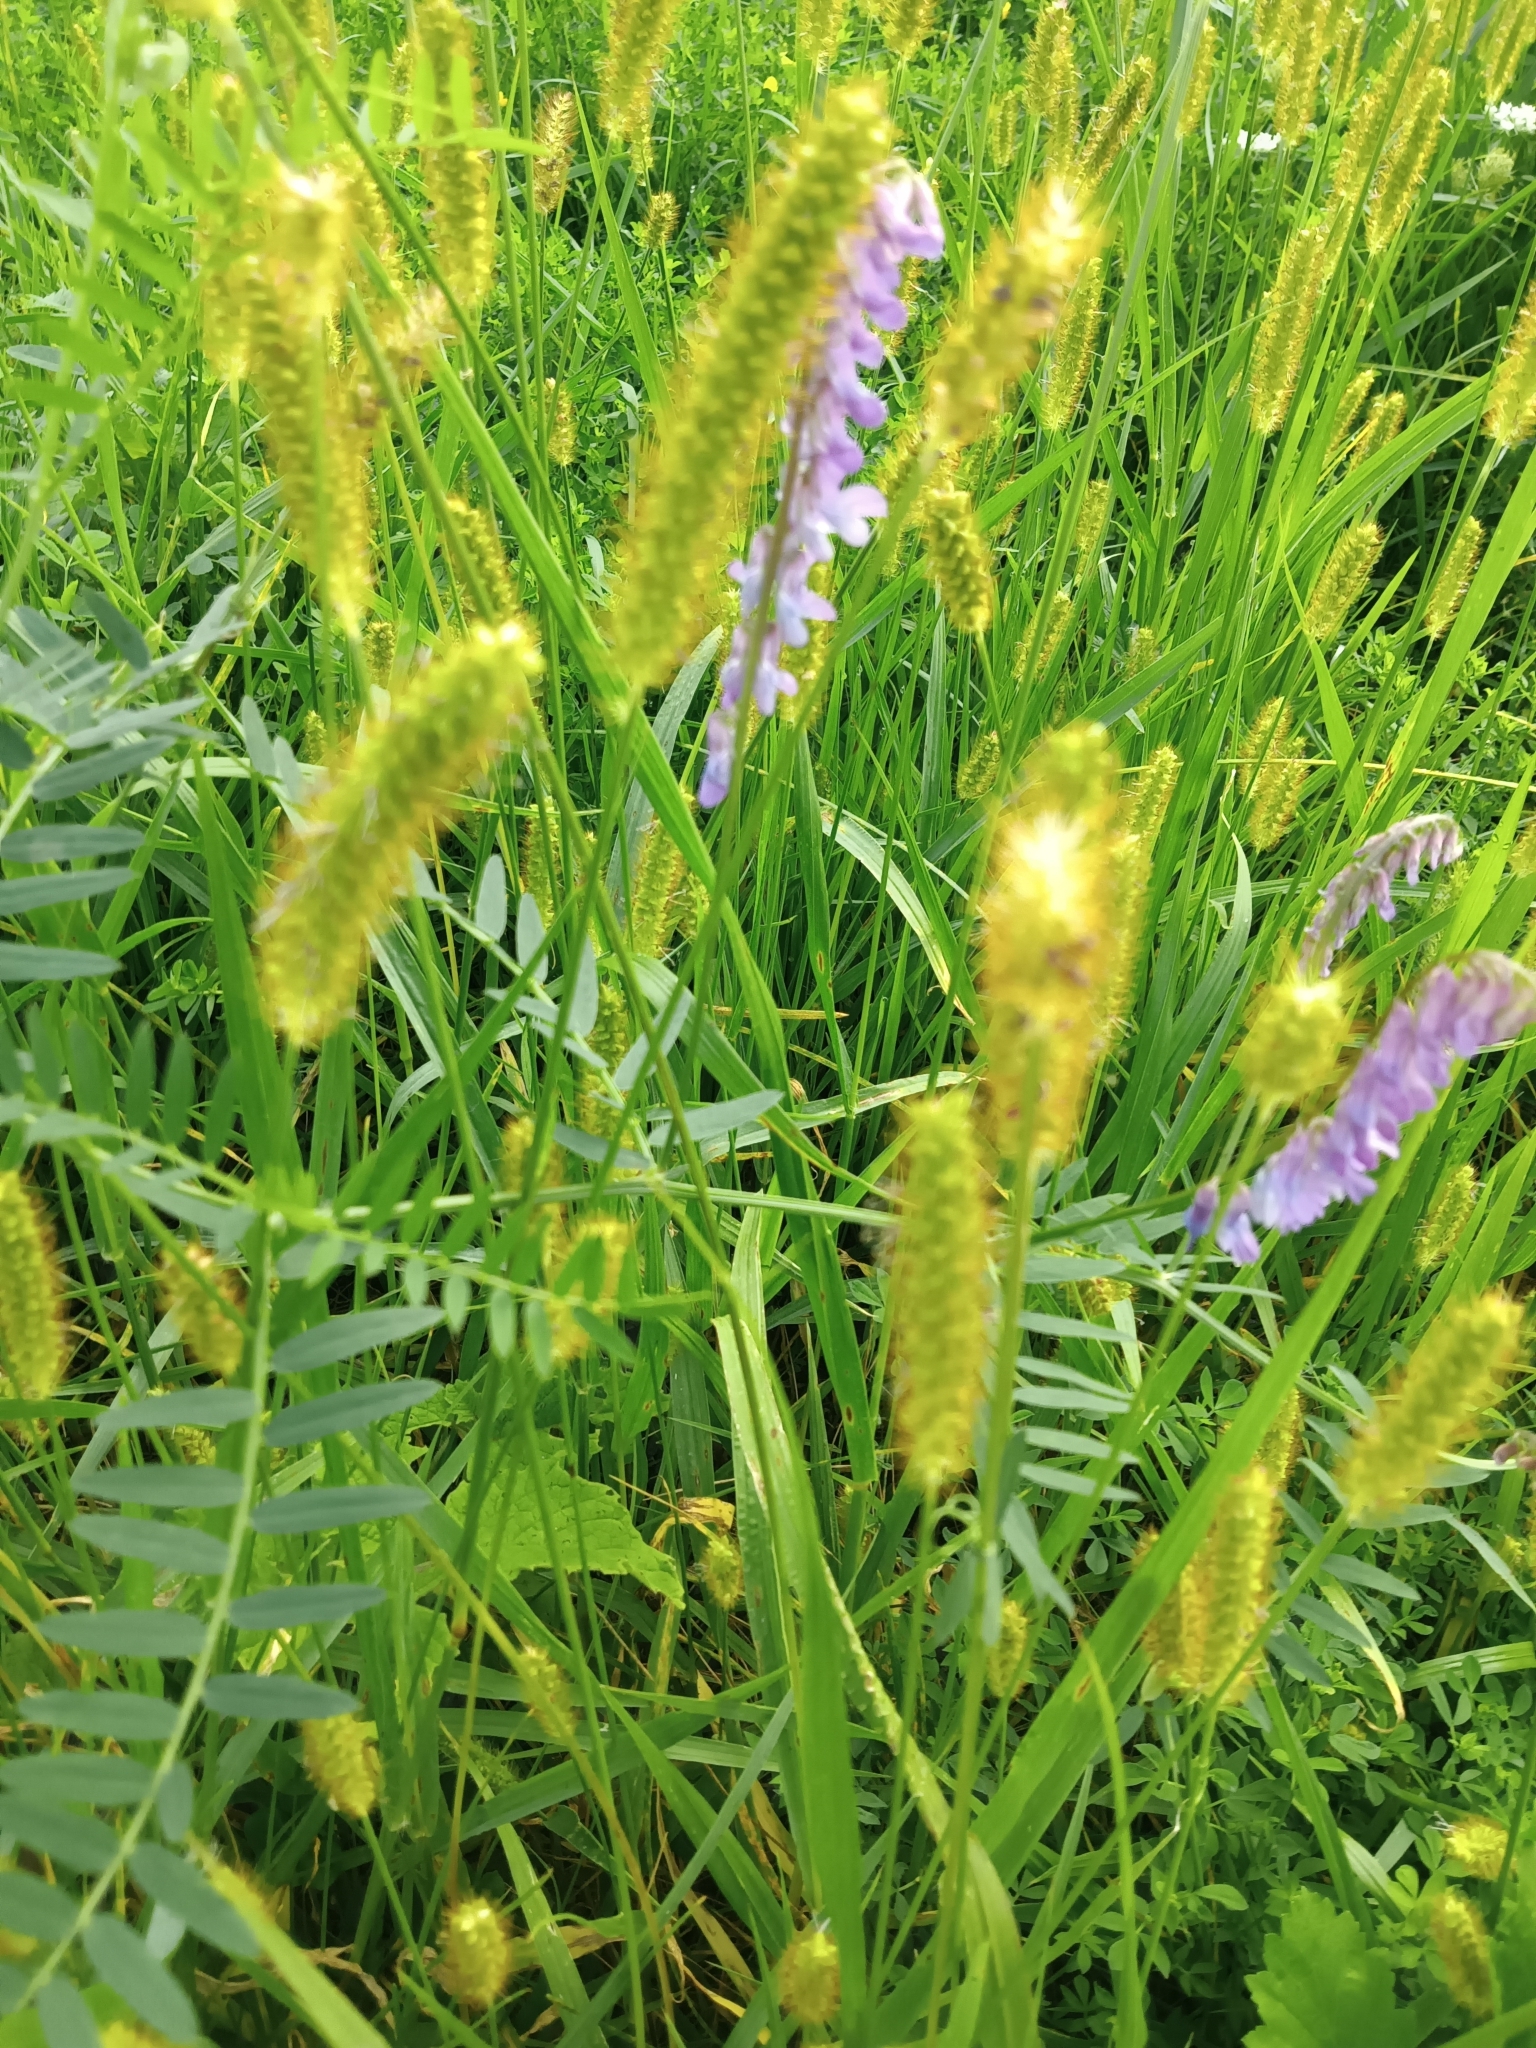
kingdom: Plantae
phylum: Tracheophyta
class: Magnoliopsida
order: Fabales
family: Fabaceae
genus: Vicia
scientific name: Vicia cracca
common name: Bird vetch
